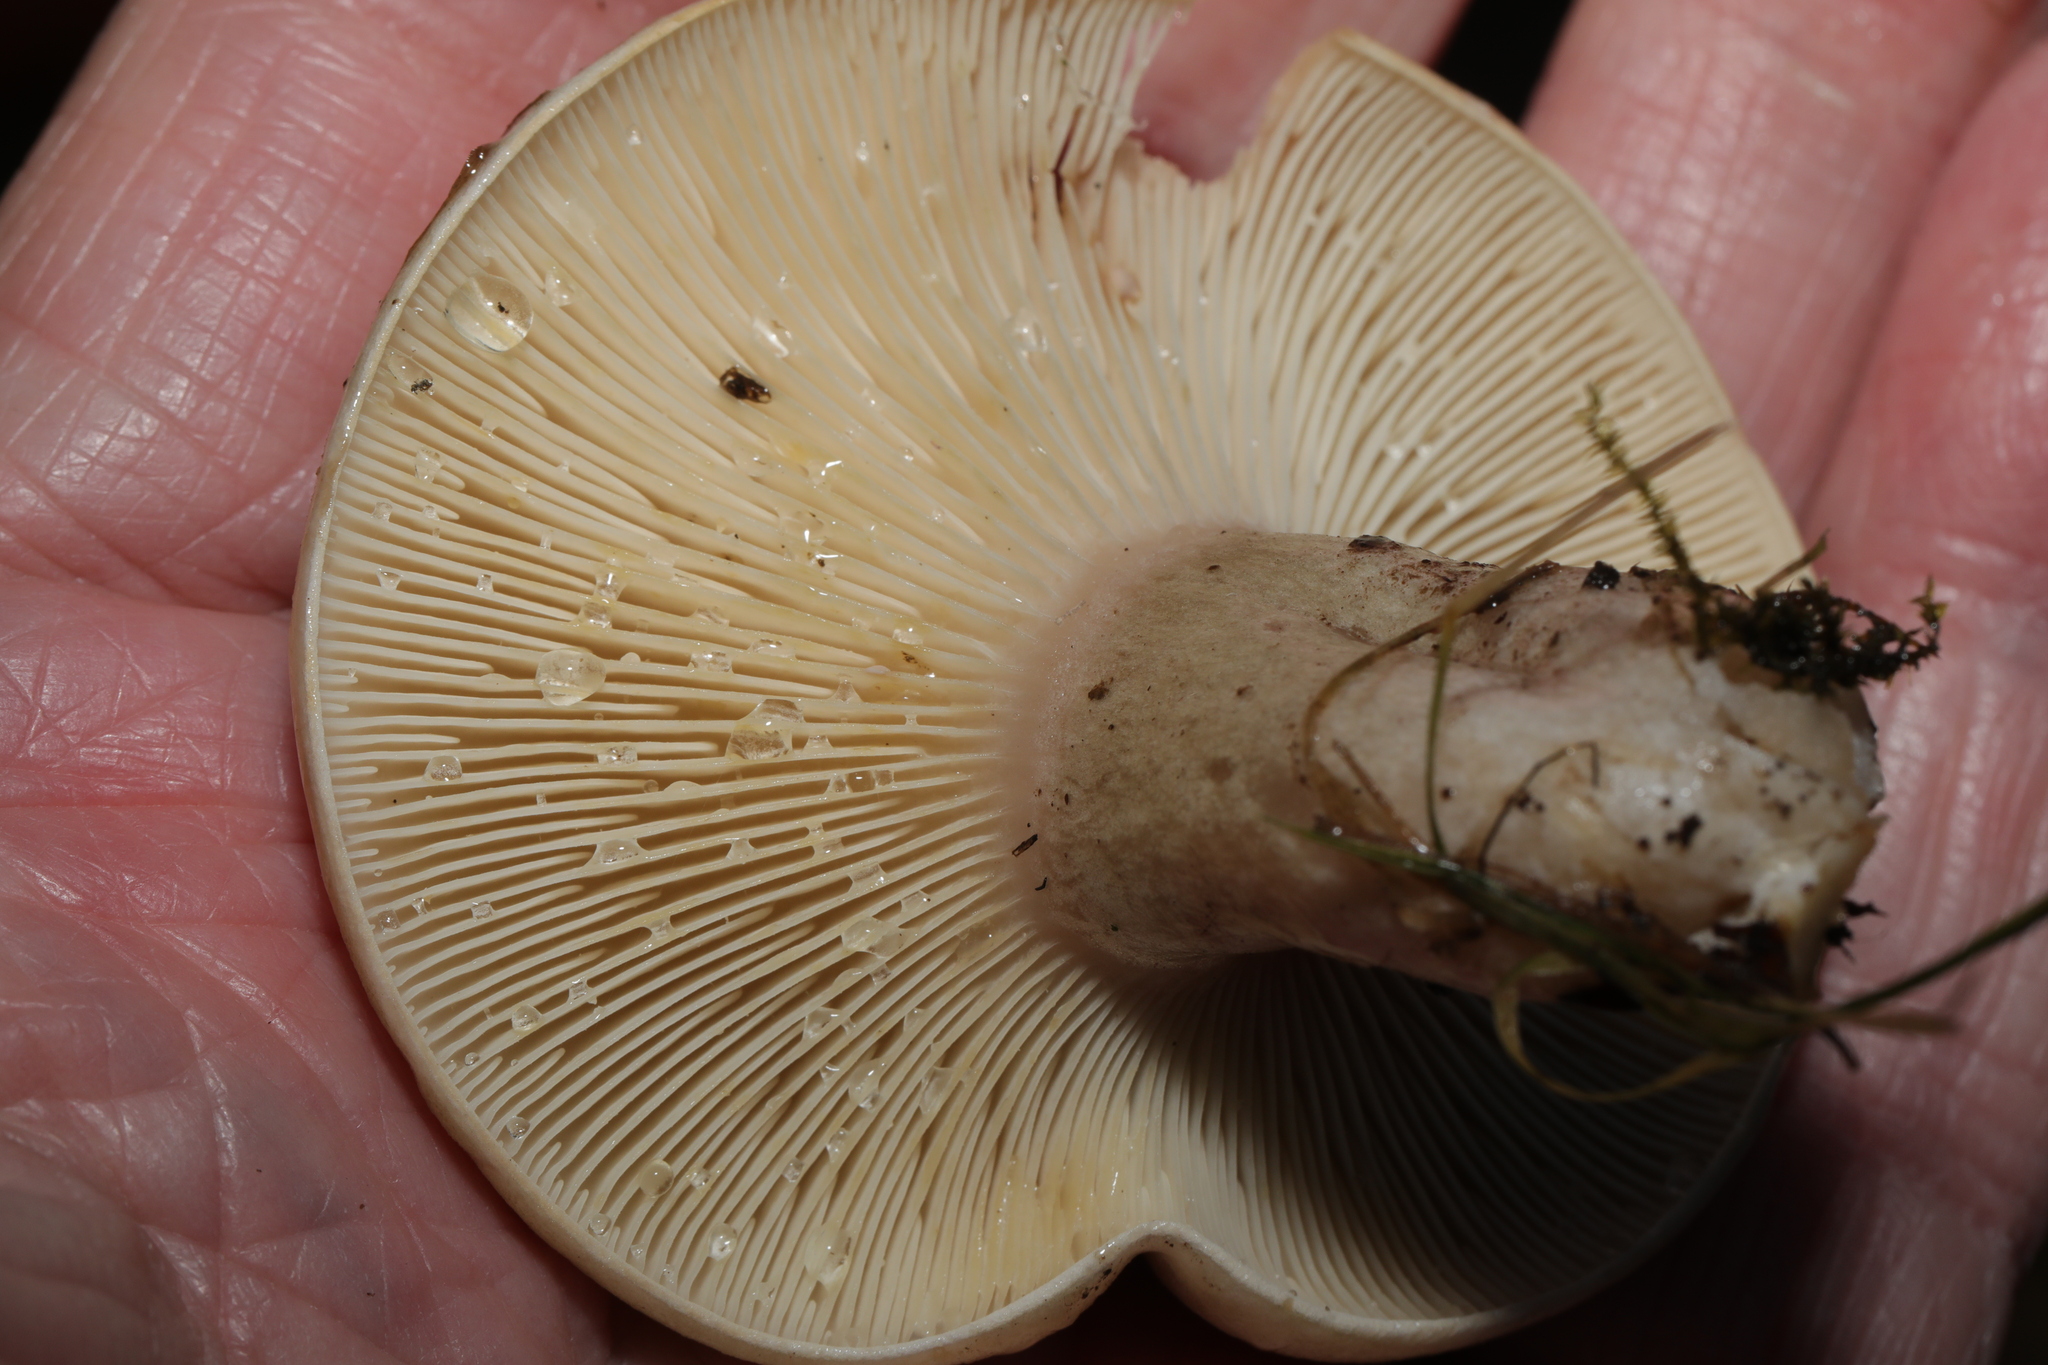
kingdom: Fungi
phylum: Basidiomycota
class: Agaricomycetes
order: Russulales
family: Russulaceae
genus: Lactarius
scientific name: Lactarius blennius
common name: Beech milkcap
